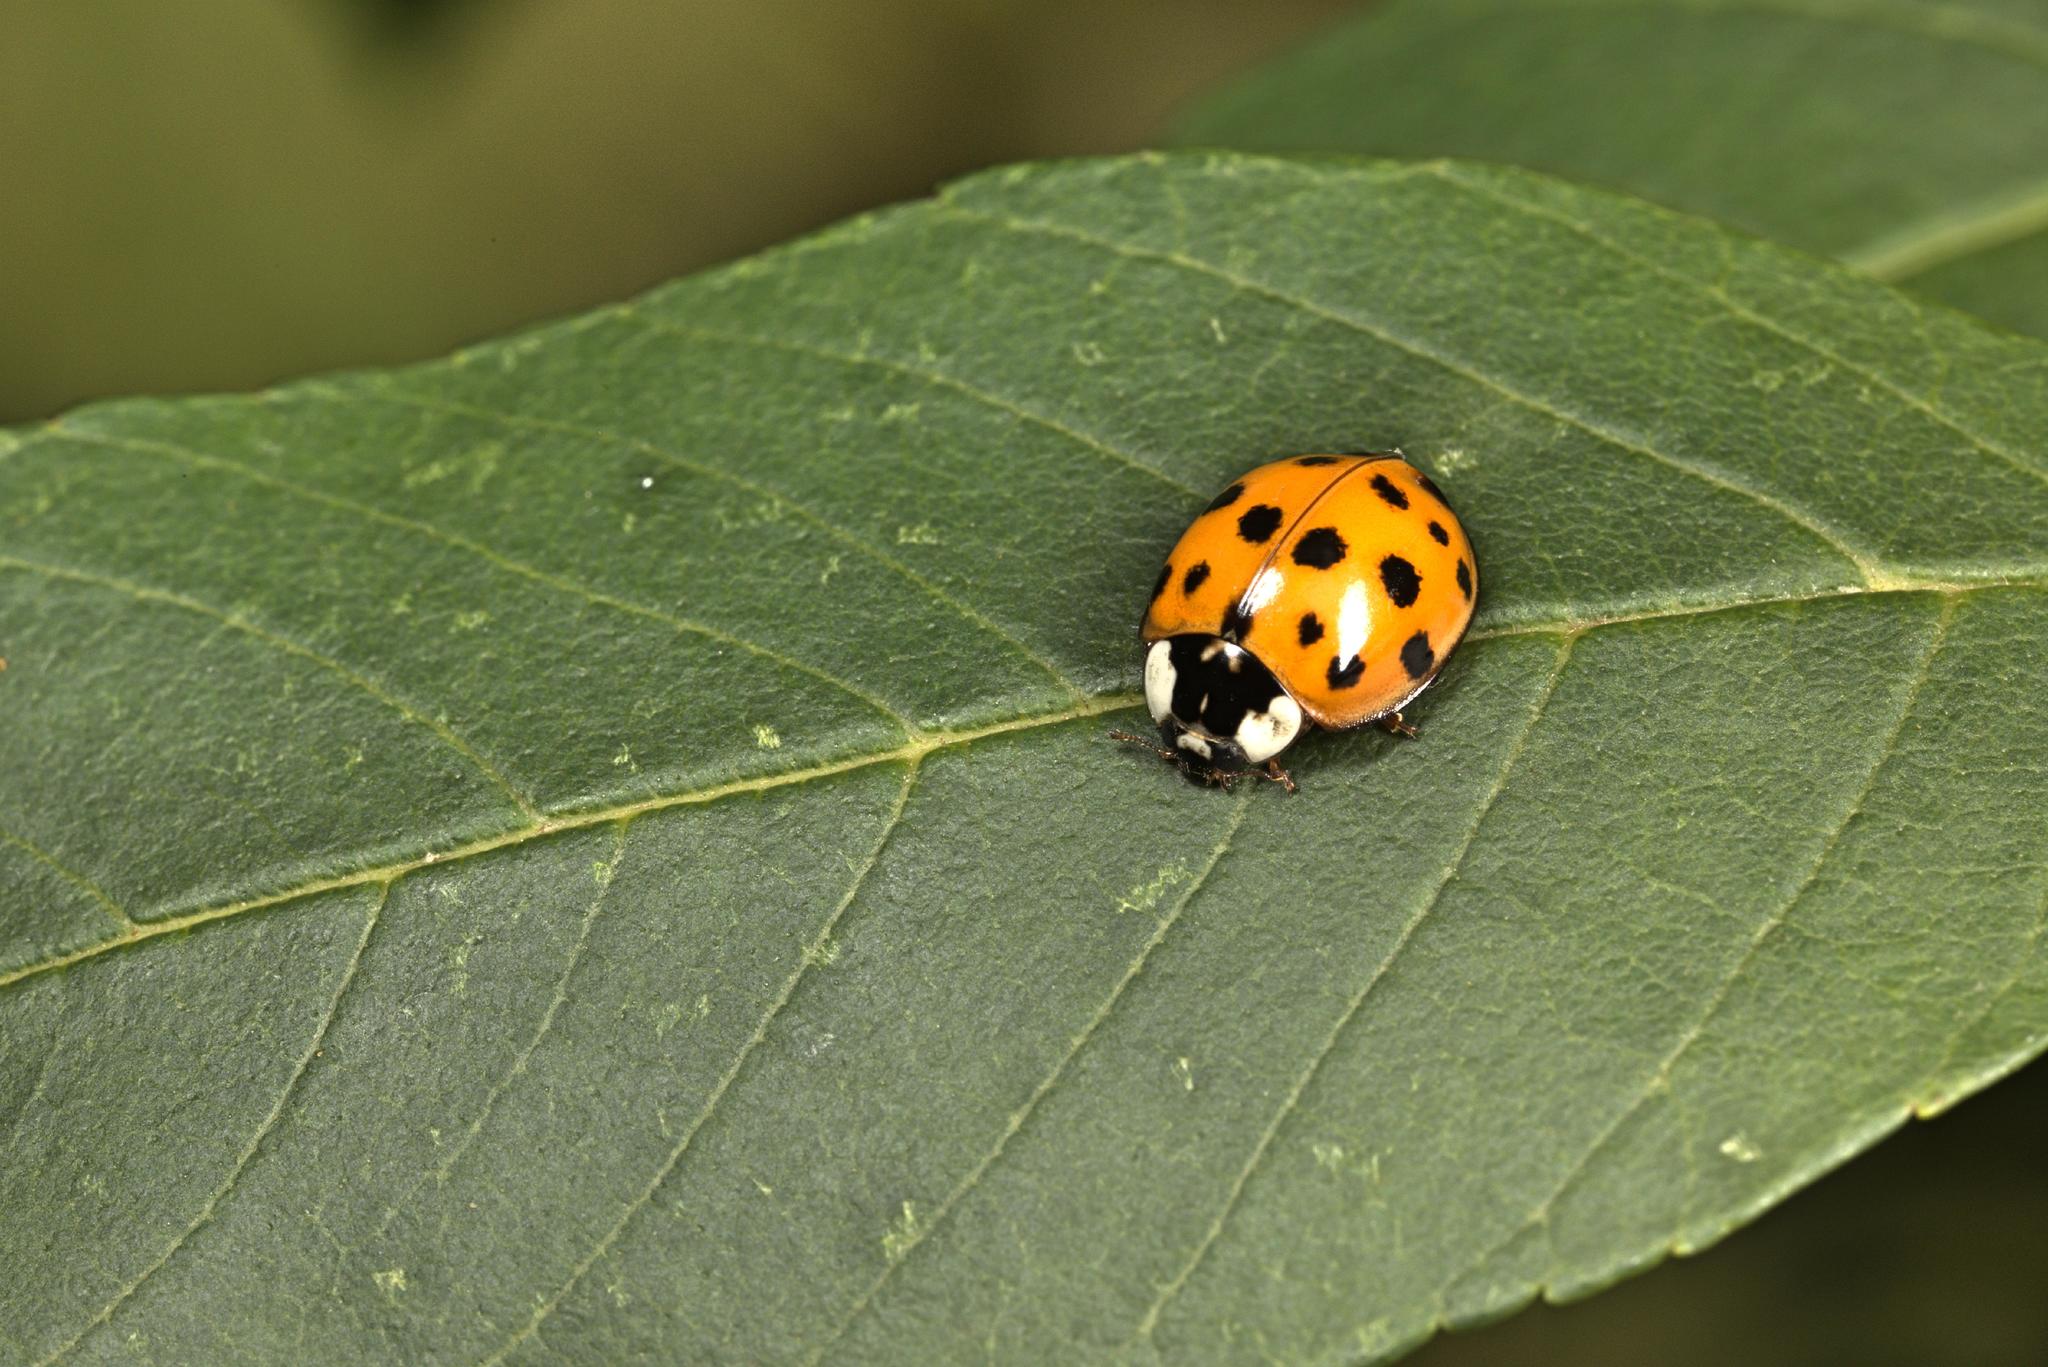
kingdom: Animalia
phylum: Arthropoda
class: Insecta
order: Coleoptera
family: Coccinellidae
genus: Harmonia
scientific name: Harmonia axyridis
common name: Harlequin ladybird
